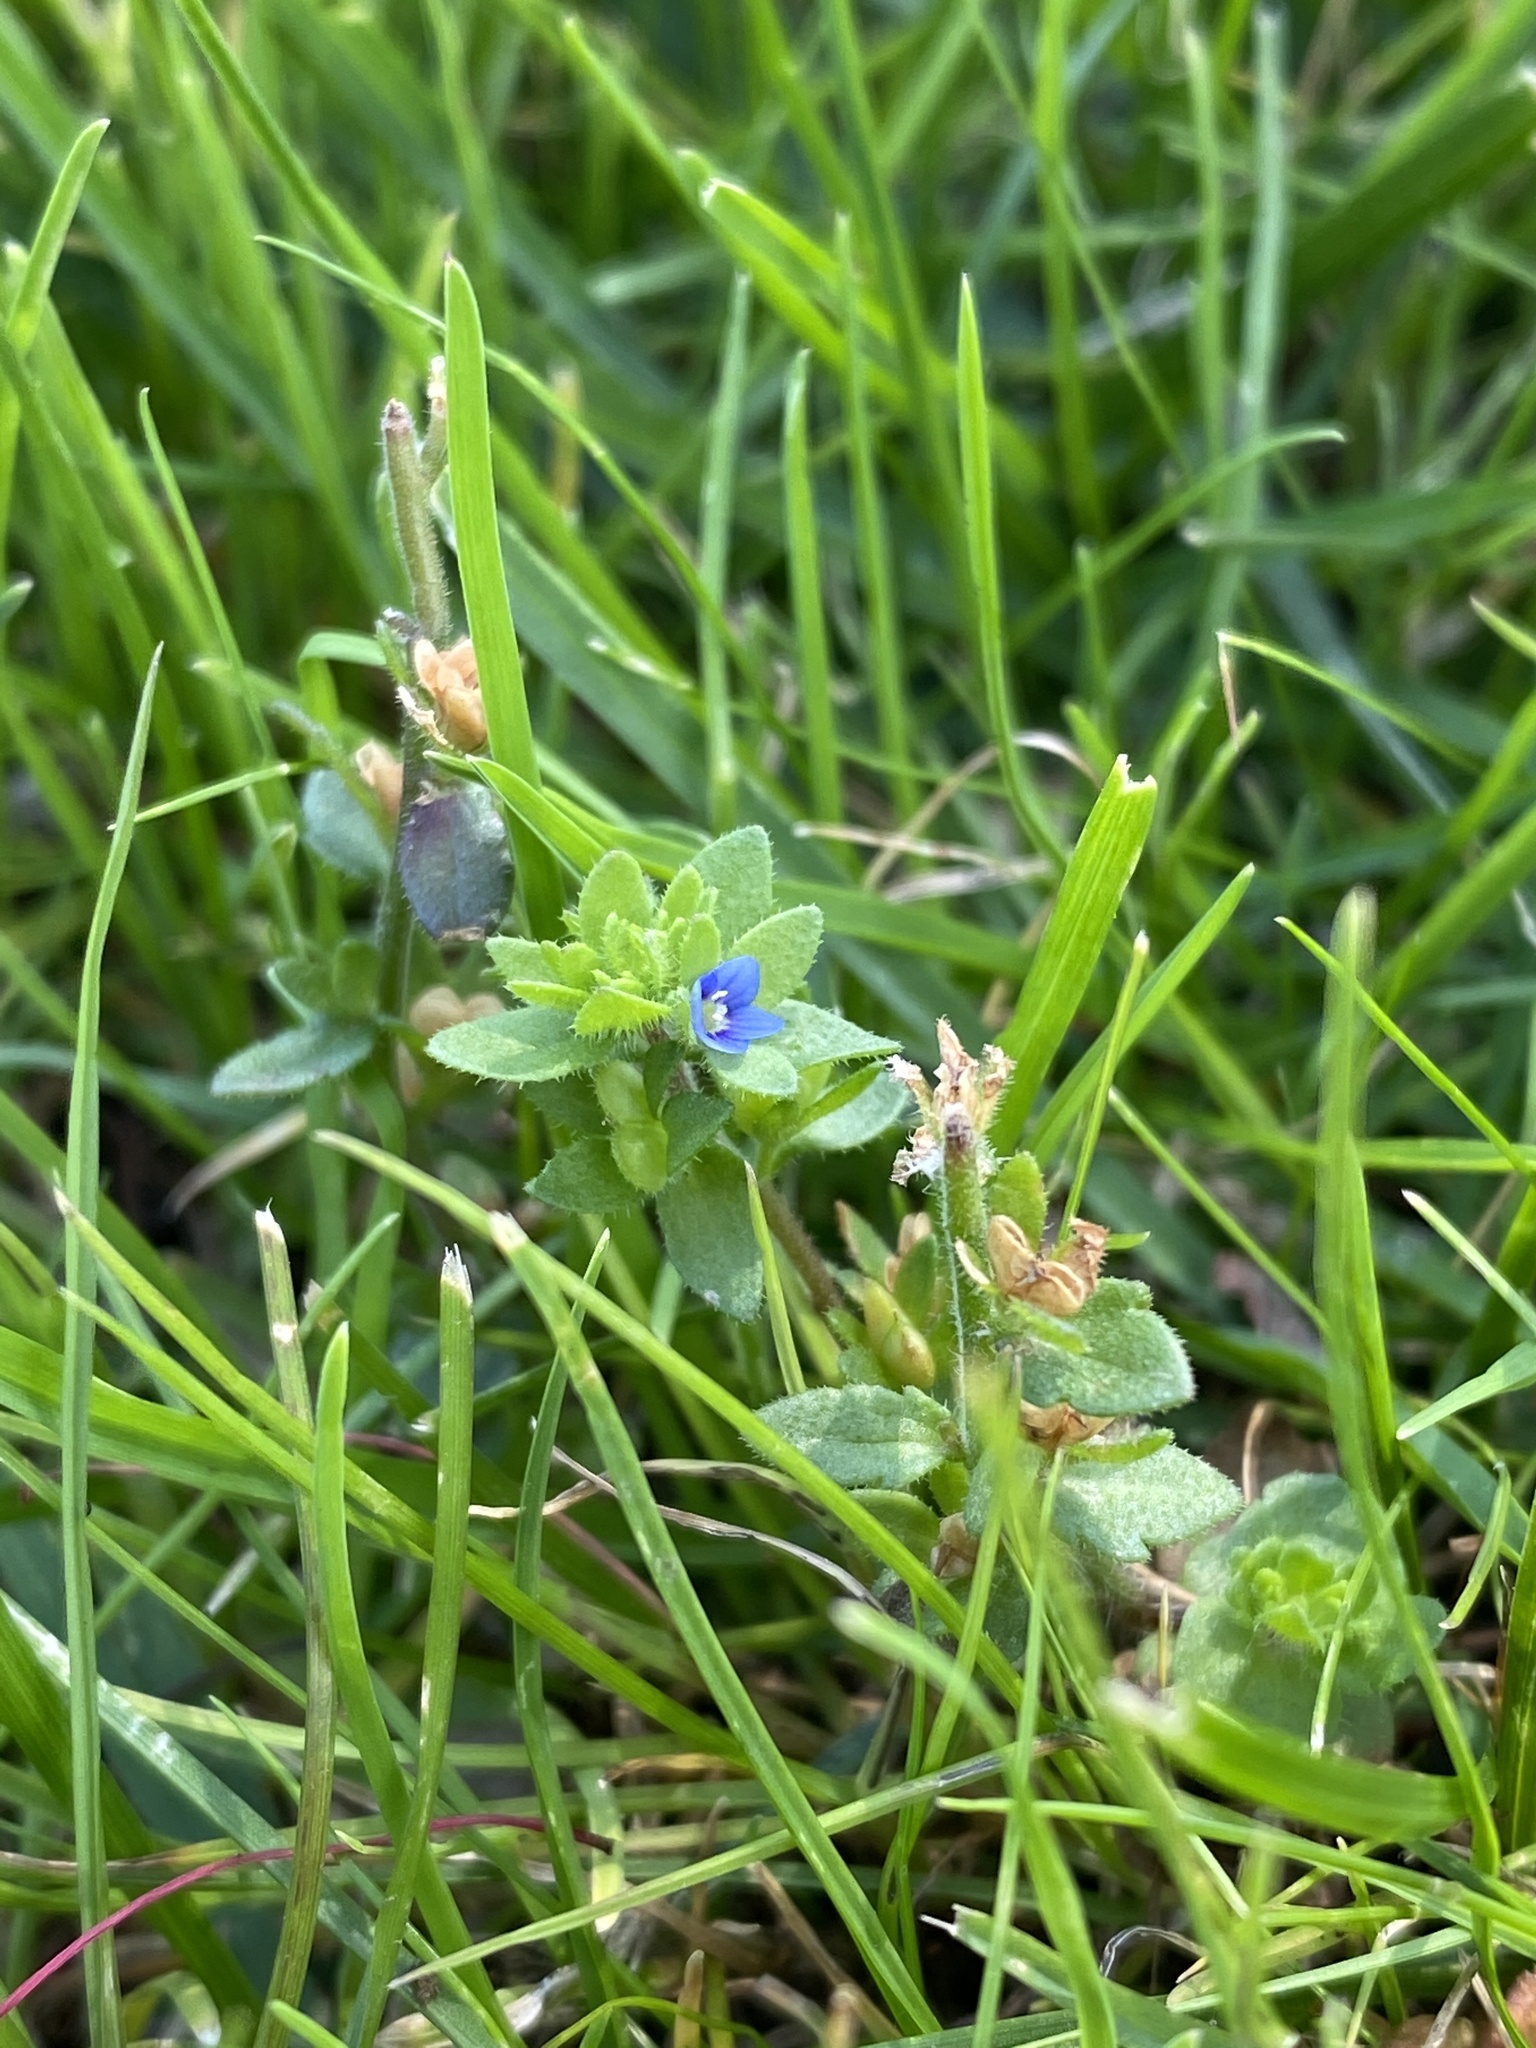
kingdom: Plantae
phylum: Tracheophyta
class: Magnoliopsida
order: Lamiales
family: Plantaginaceae
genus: Veronica
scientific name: Veronica arvensis
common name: Corn speedwell
